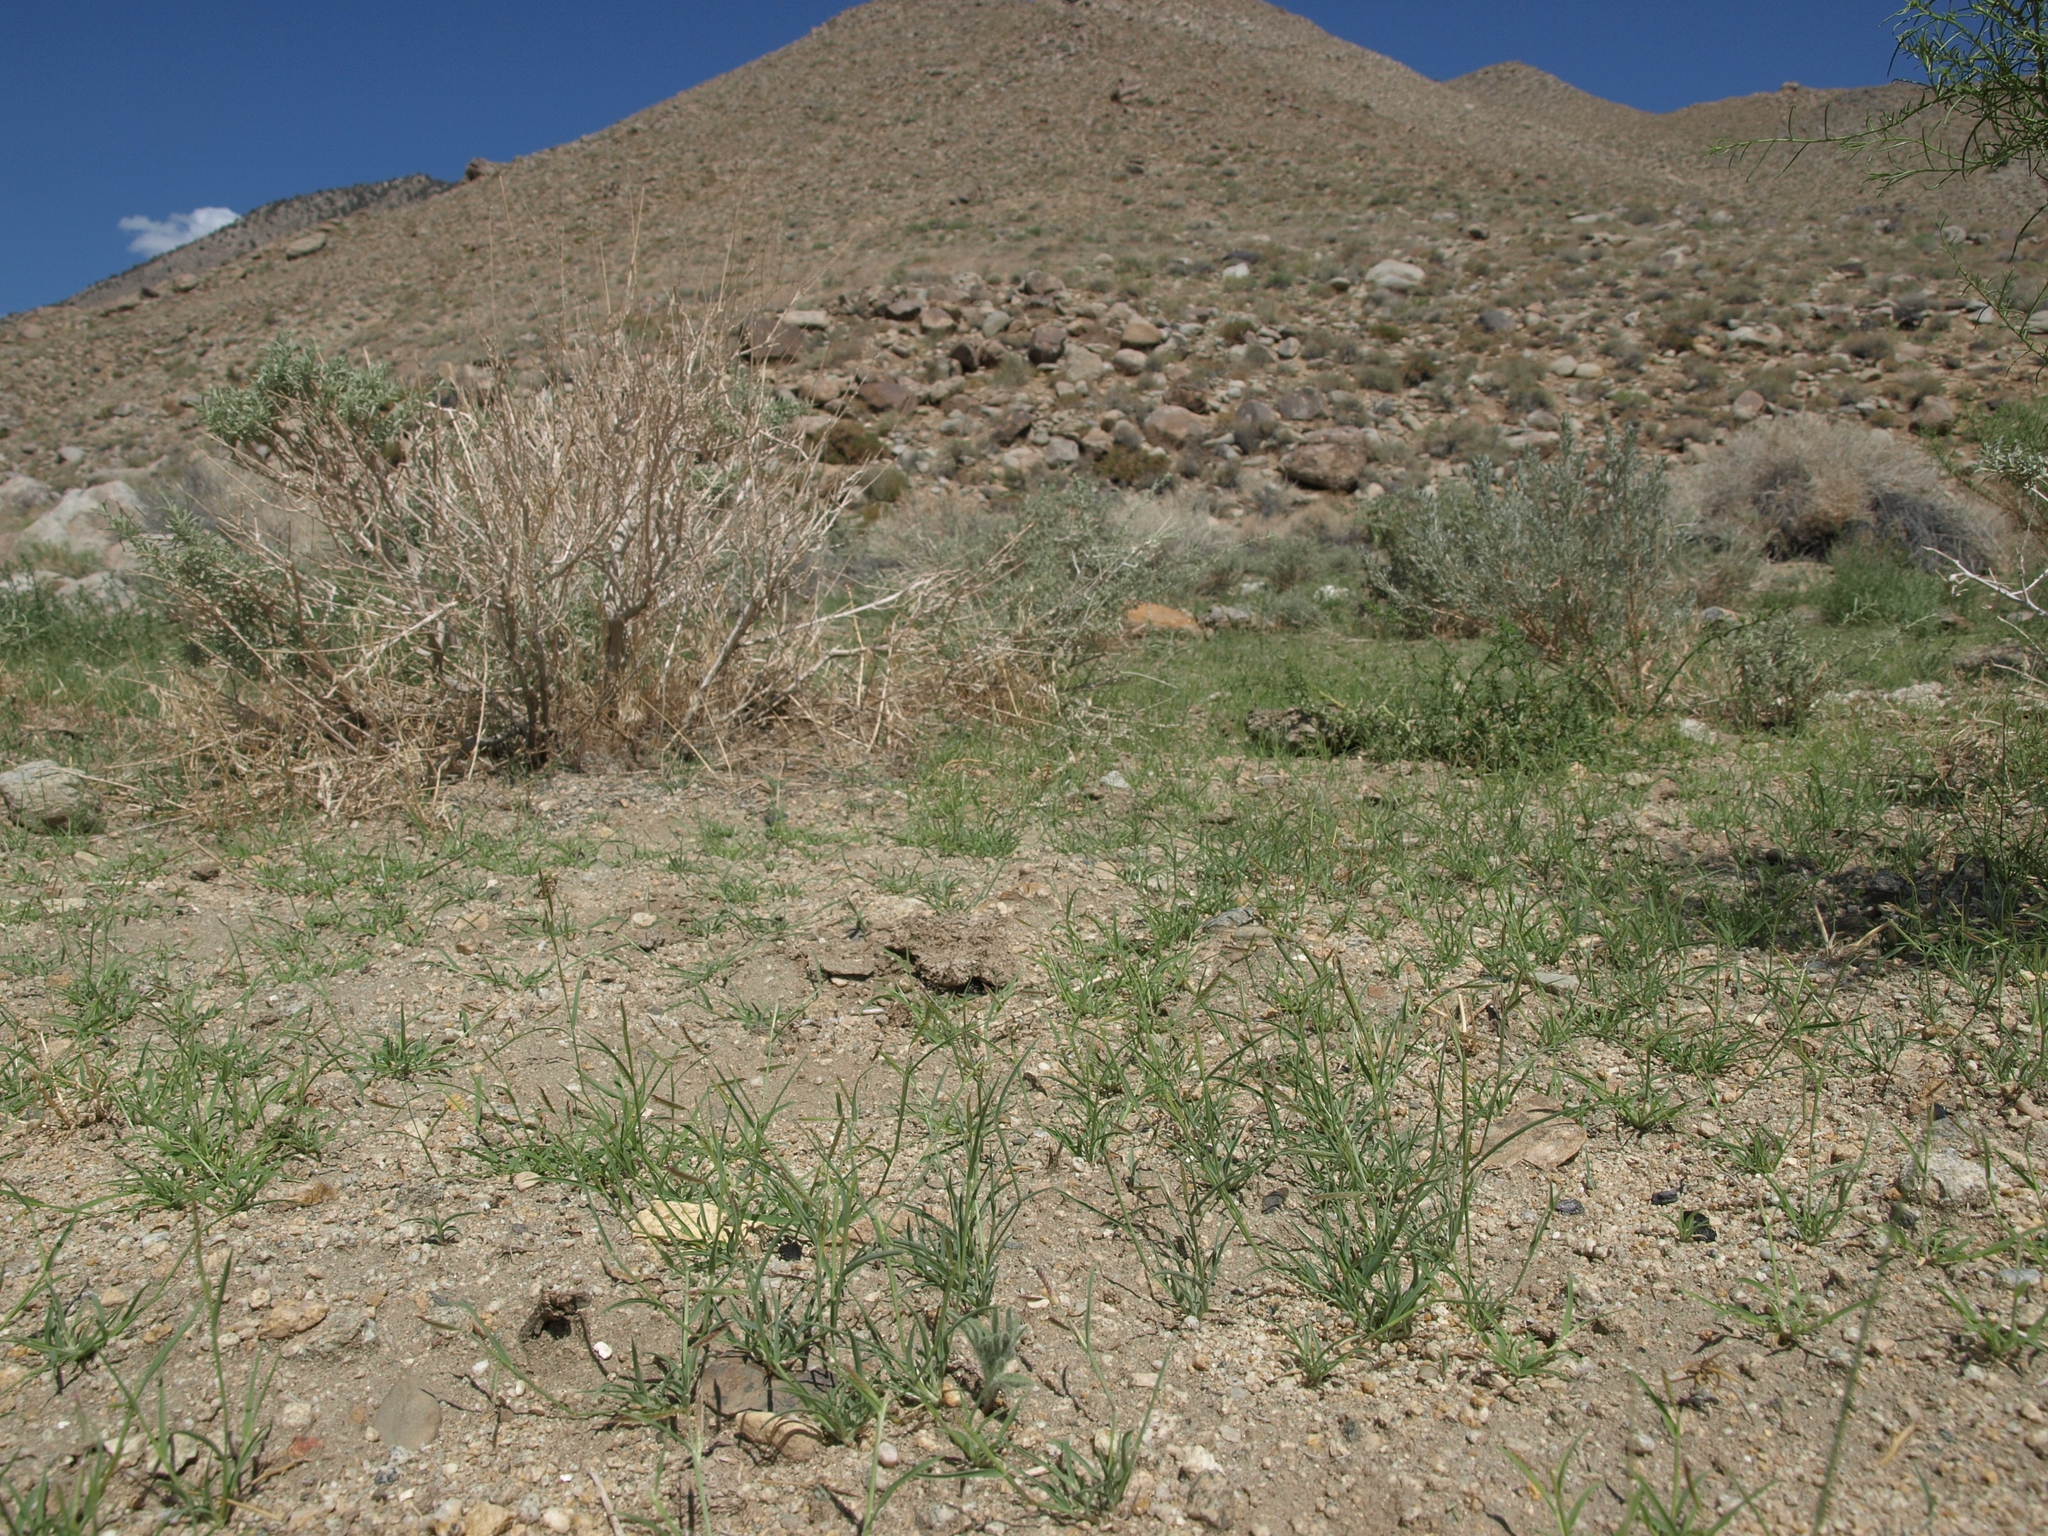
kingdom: Plantae
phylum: Tracheophyta
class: Liliopsida
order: Poales
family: Poaceae
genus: Bouteloua
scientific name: Bouteloua barbata
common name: Six-weeks grama
